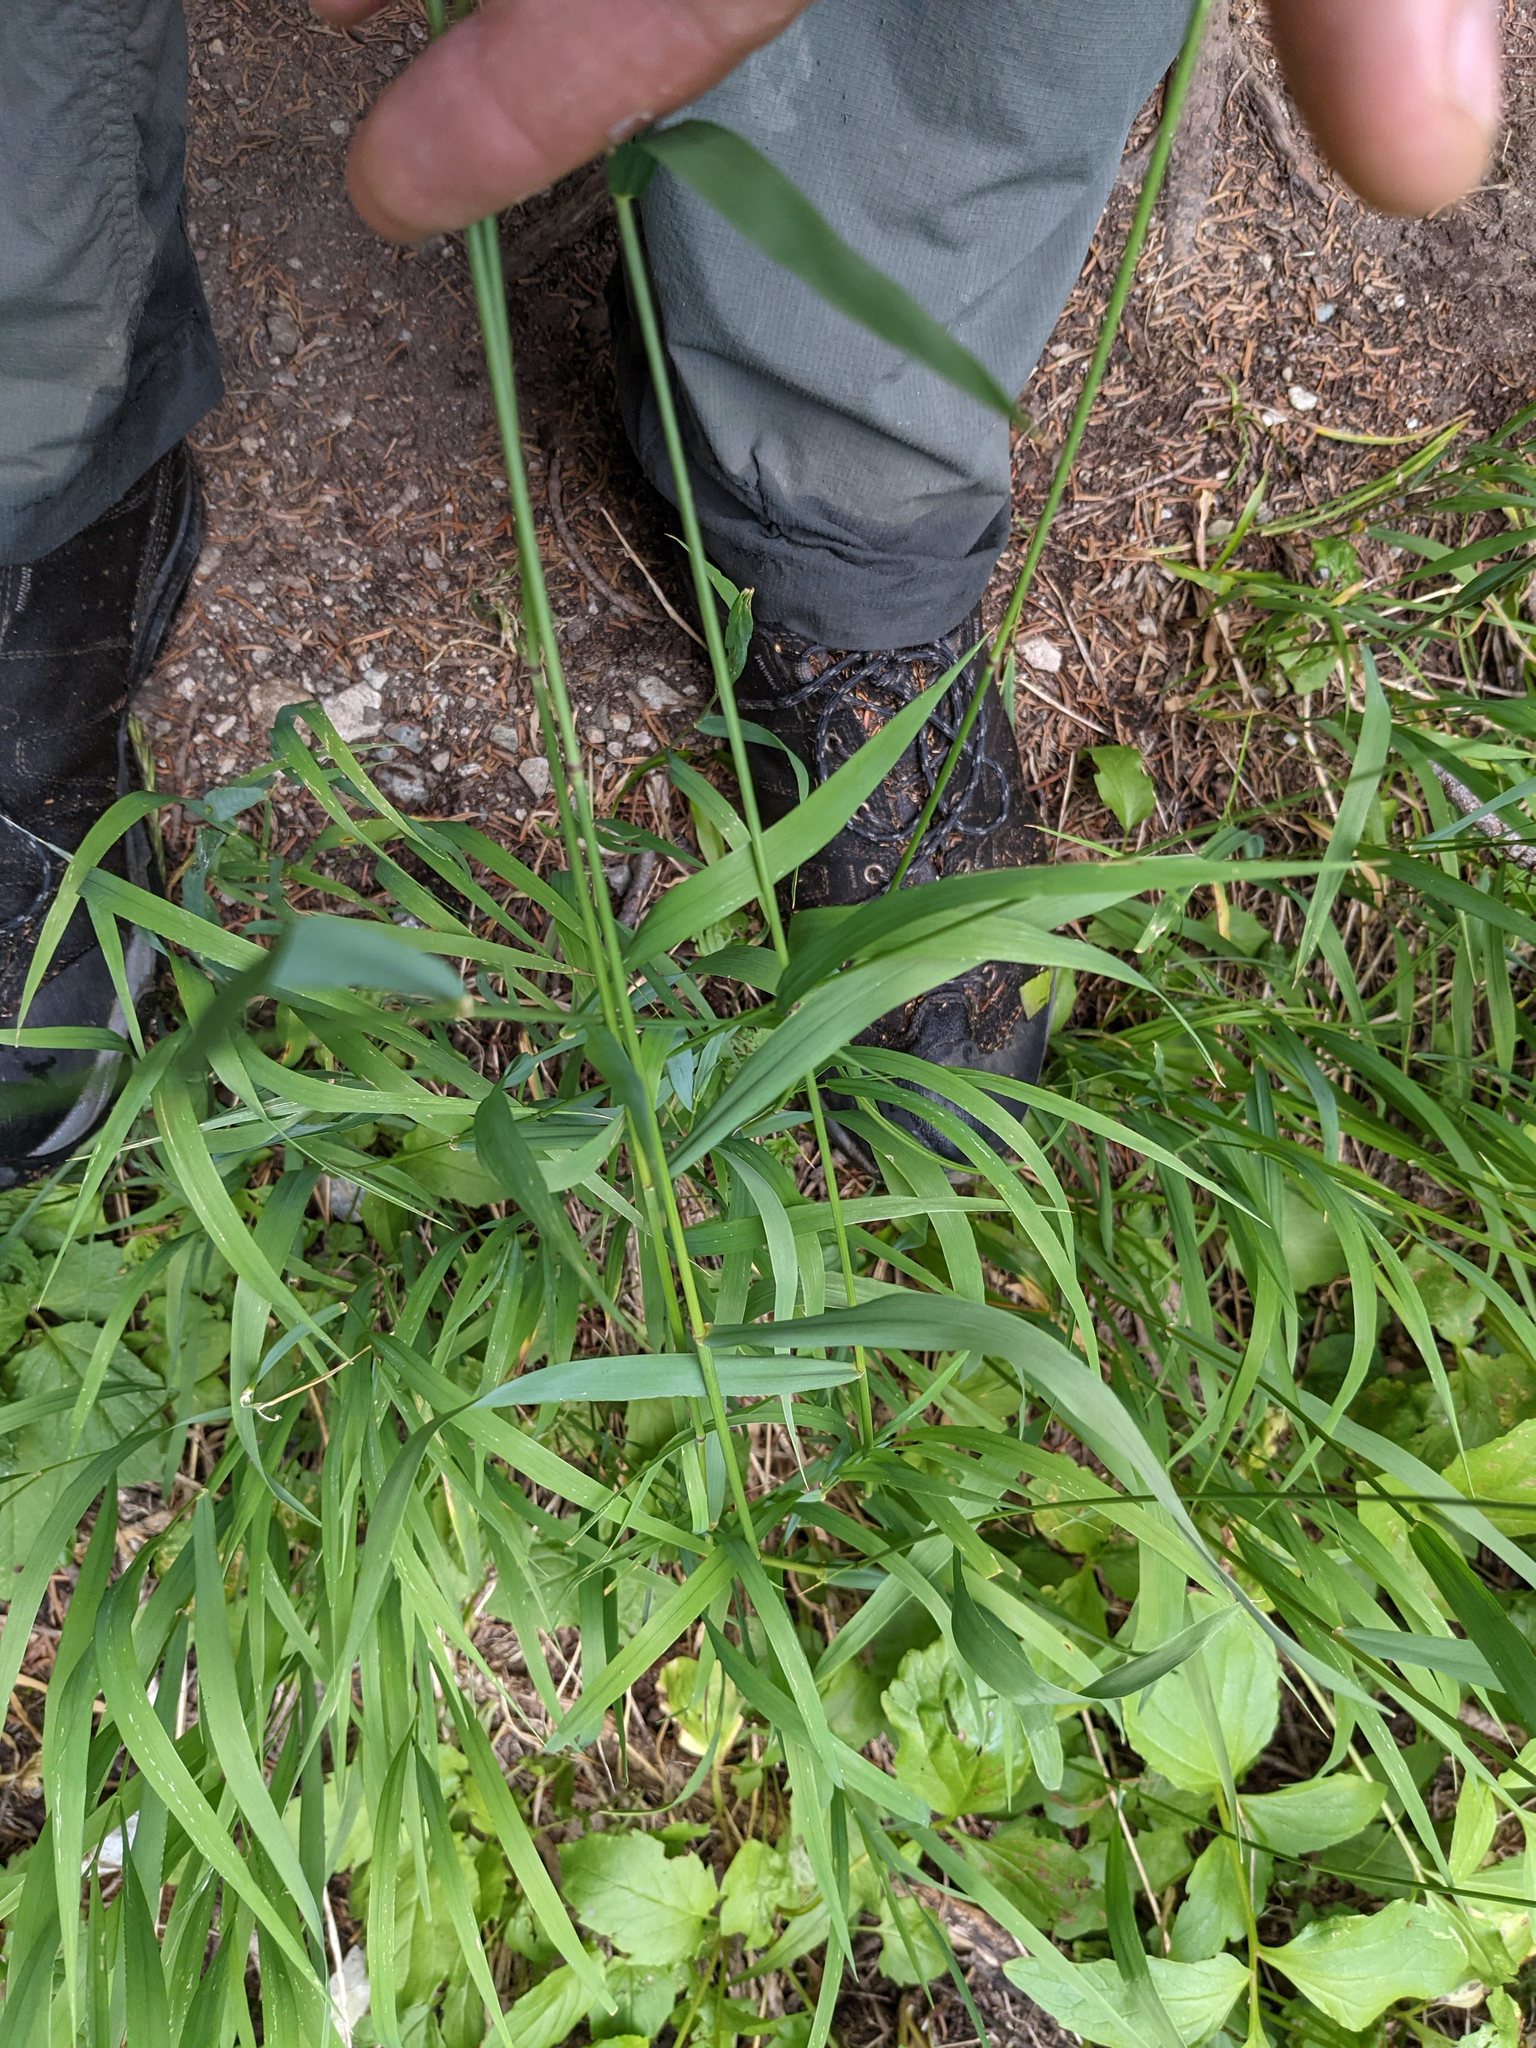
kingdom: Plantae
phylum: Tracheophyta
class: Liliopsida
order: Poales
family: Poaceae
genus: Elymus
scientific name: Elymus glaucus
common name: Blue wild rye
